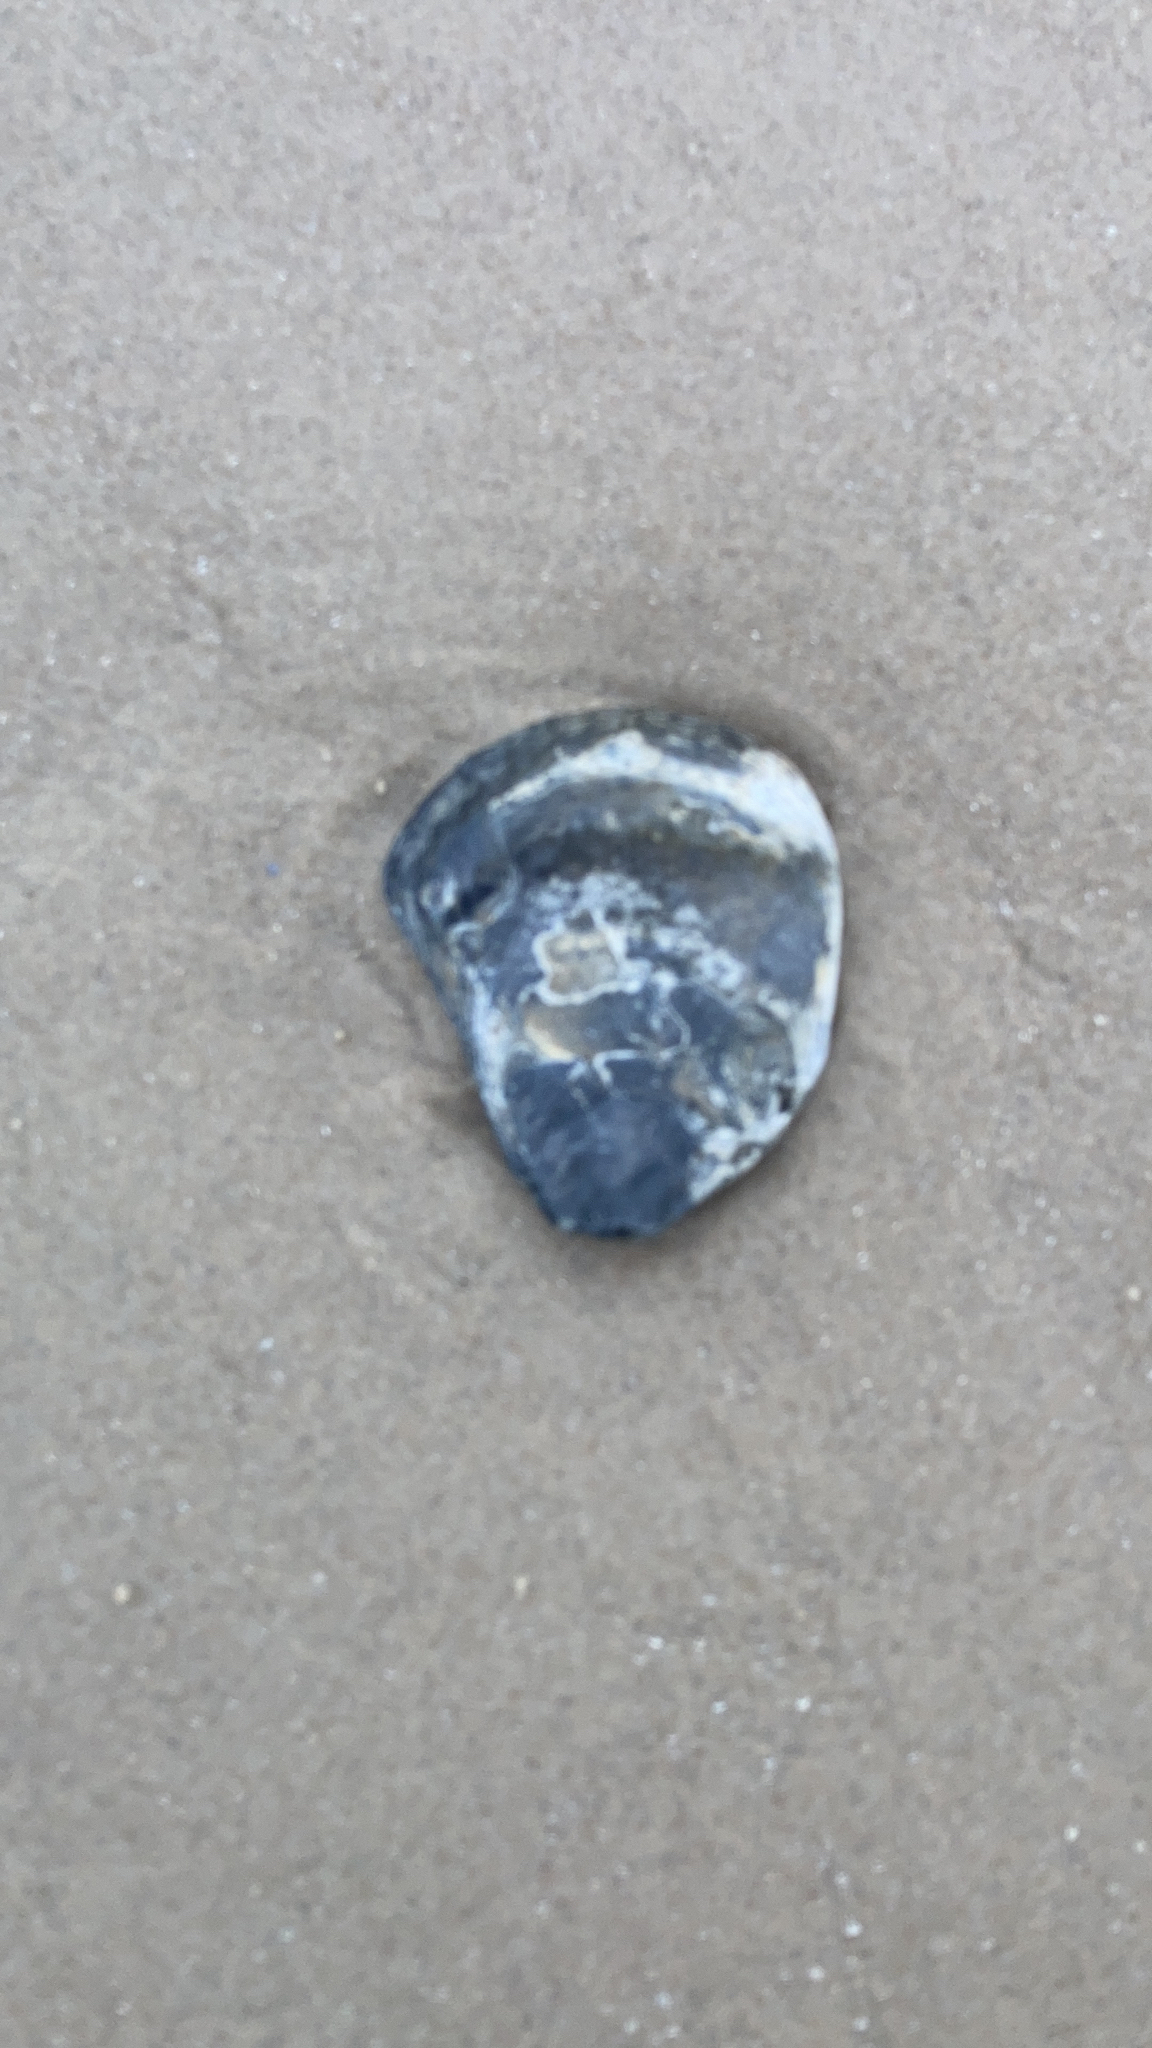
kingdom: Animalia
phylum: Mollusca
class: Bivalvia
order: Ostreida
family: Ostreidae
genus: Ostrea
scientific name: Ostrea edulis
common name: Flat oyster
